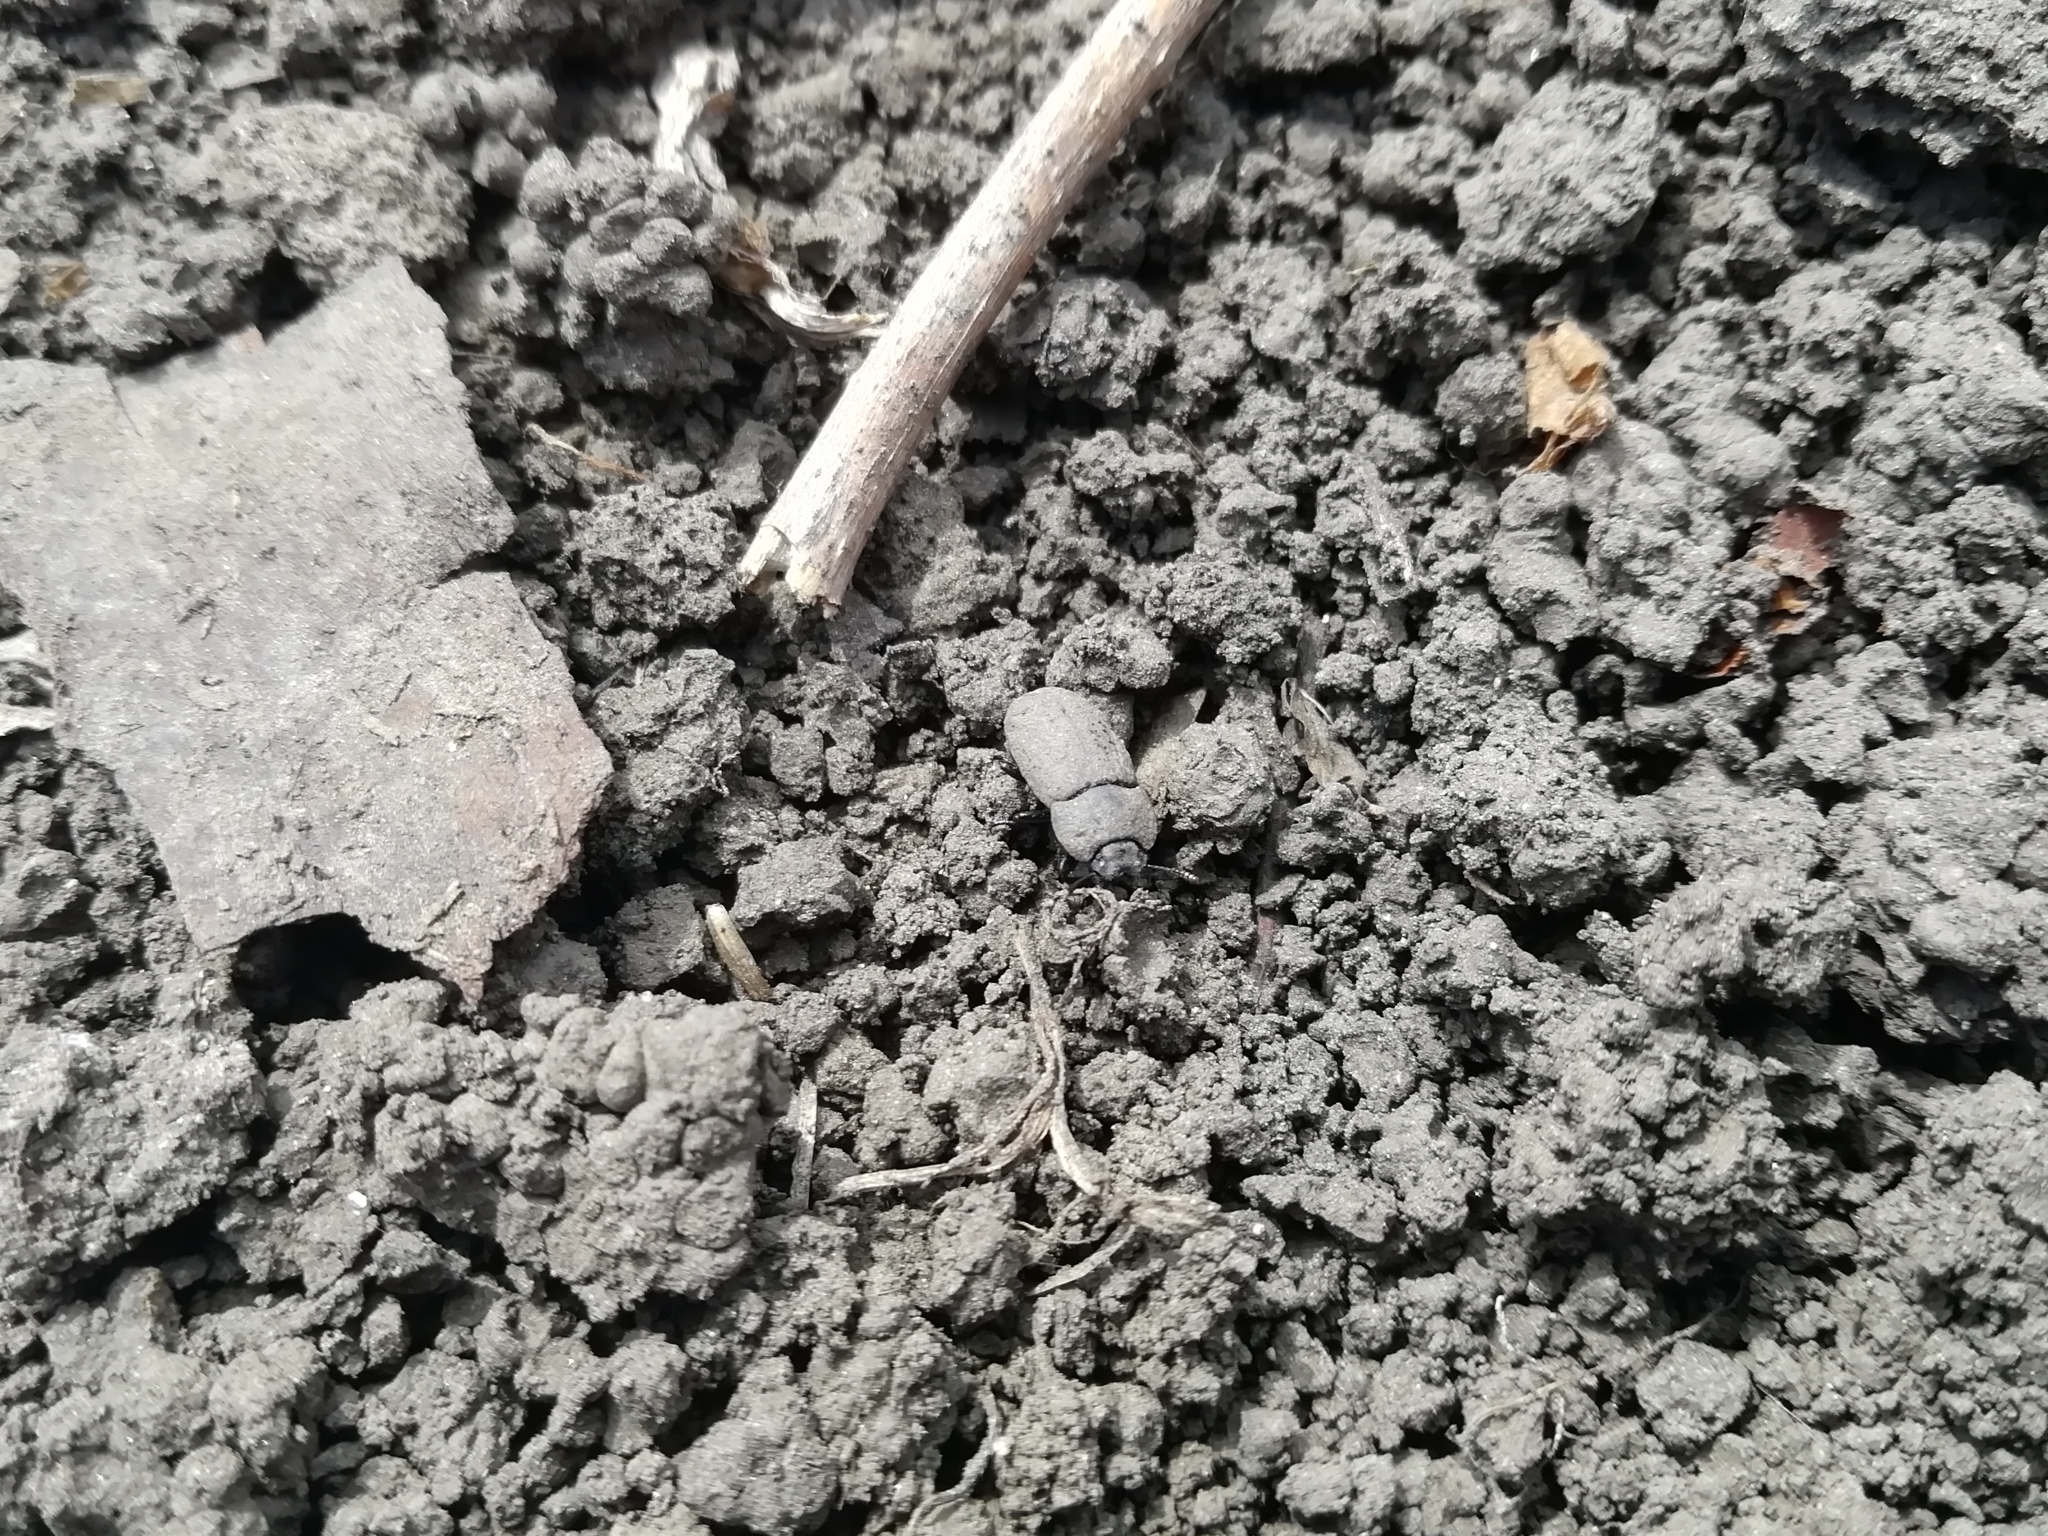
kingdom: Animalia
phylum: Arthropoda
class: Insecta
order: Coleoptera
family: Tenebrionidae
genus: Opatrum
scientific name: Opatrum sabulosum
